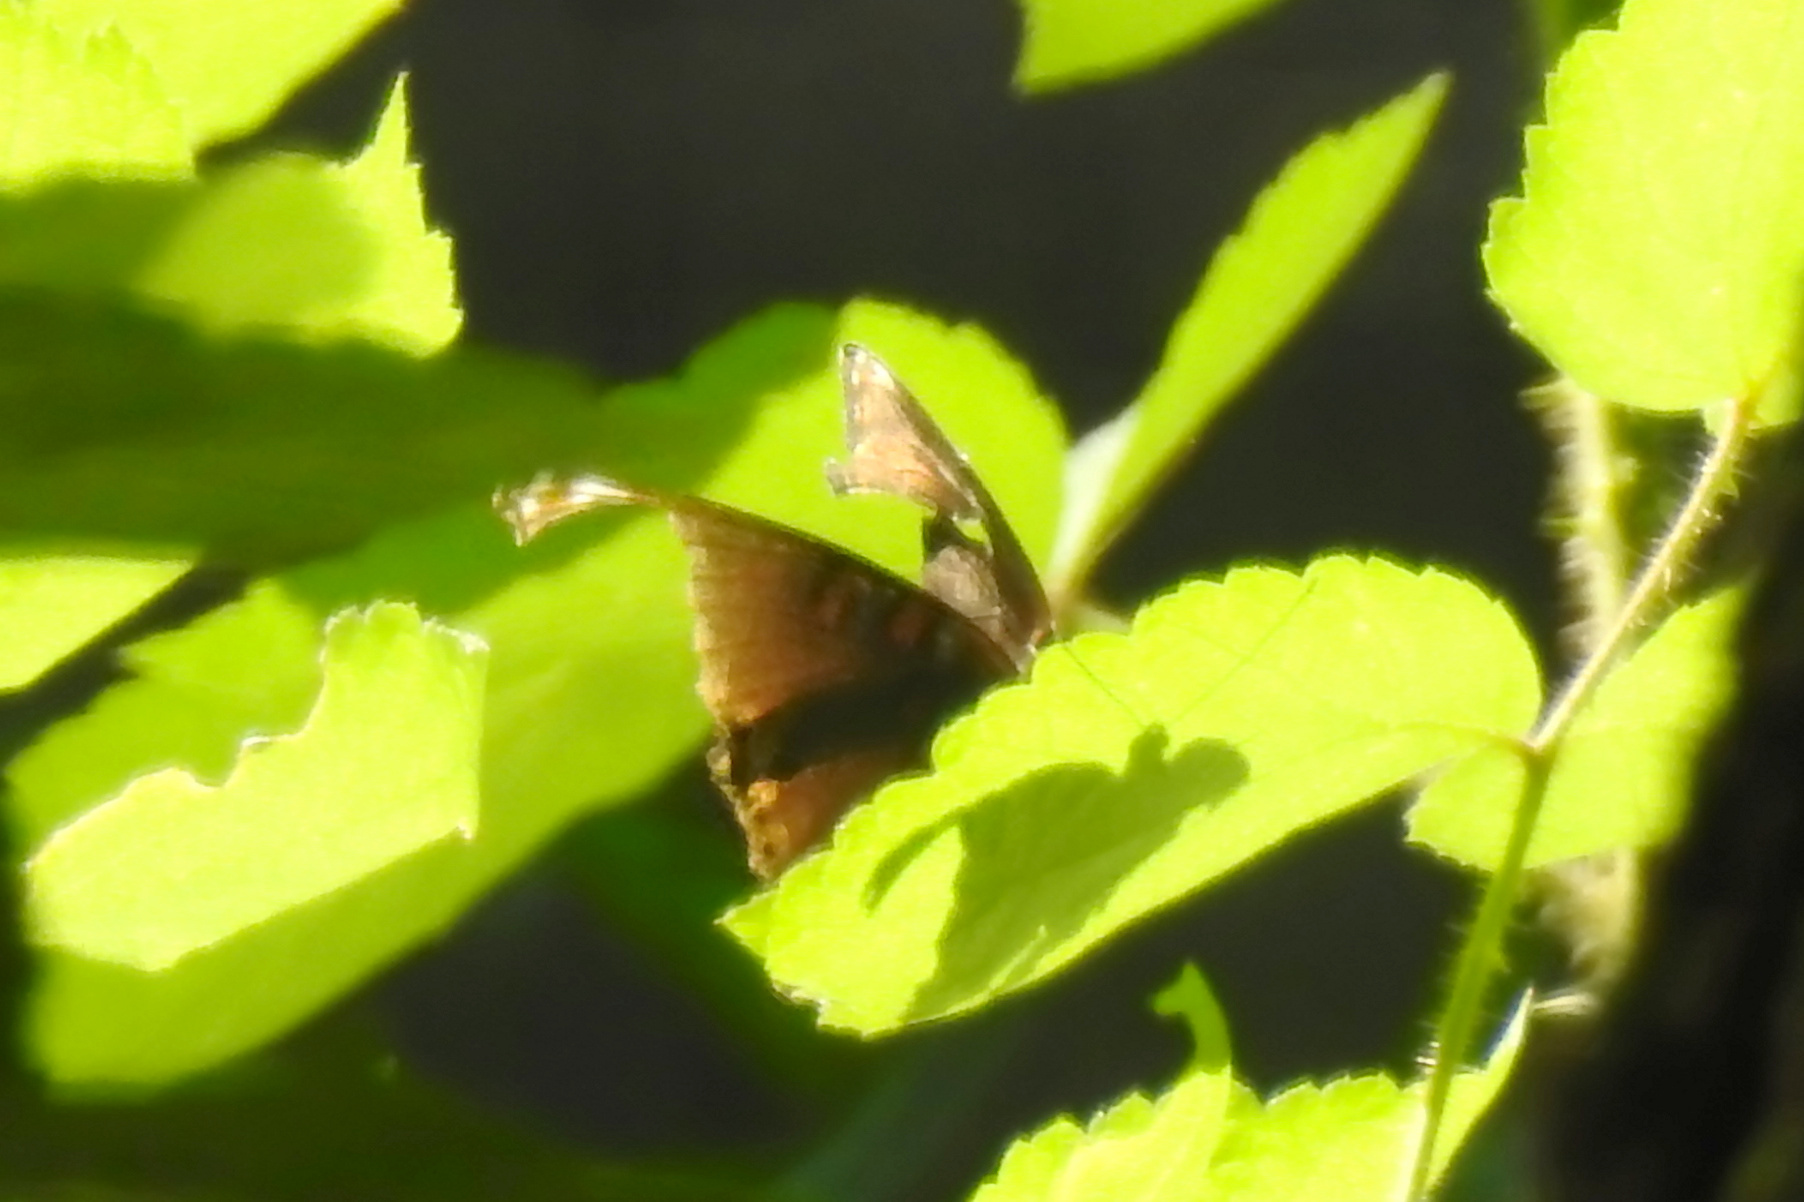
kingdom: Animalia
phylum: Arthropoda
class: Insecta
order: Lepidoptera
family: Nymphalidae
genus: Limenitis
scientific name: Limenitis arthemis
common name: Red-spotted admiral
